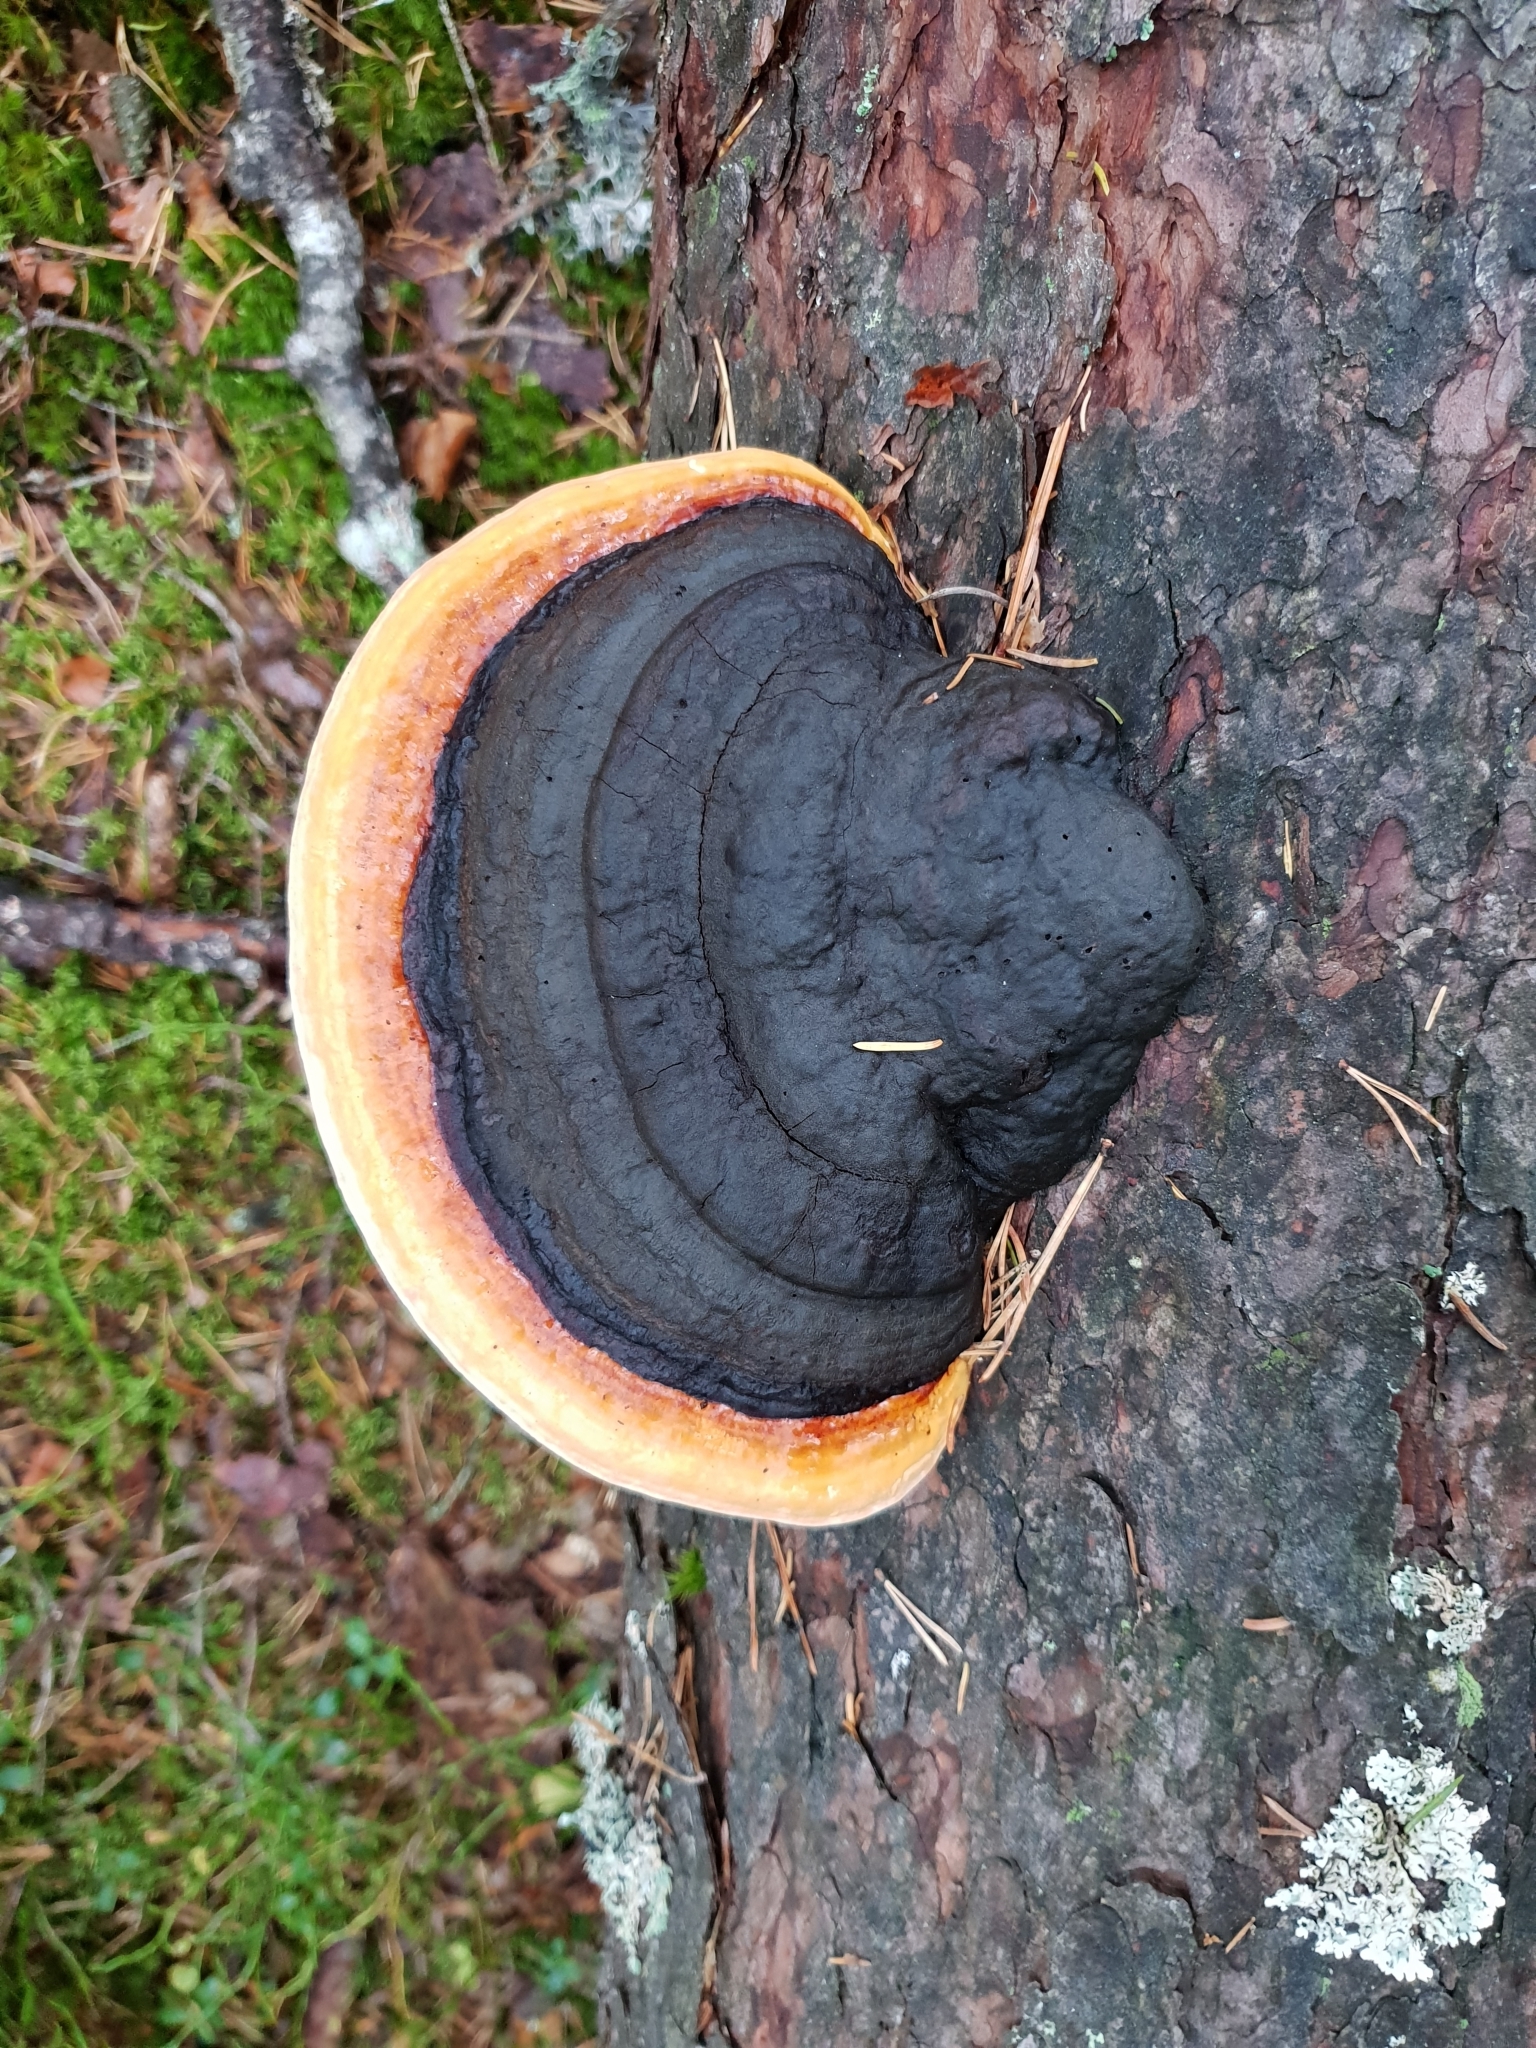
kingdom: Fungi
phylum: Basidiomycota
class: Agaricomycetes
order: Polyporales
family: Fomitopsidaceae
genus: Fomitopsis
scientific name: Fomitopsis pinicola
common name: Red-belted bracket
